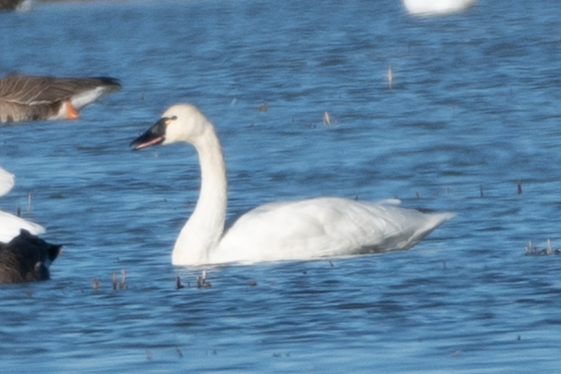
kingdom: Animalia
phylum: Chordata
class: Aves
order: Anseriformes
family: Anatidae
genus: Cygnus
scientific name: Cygnus columbianus
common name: Tundra swan
